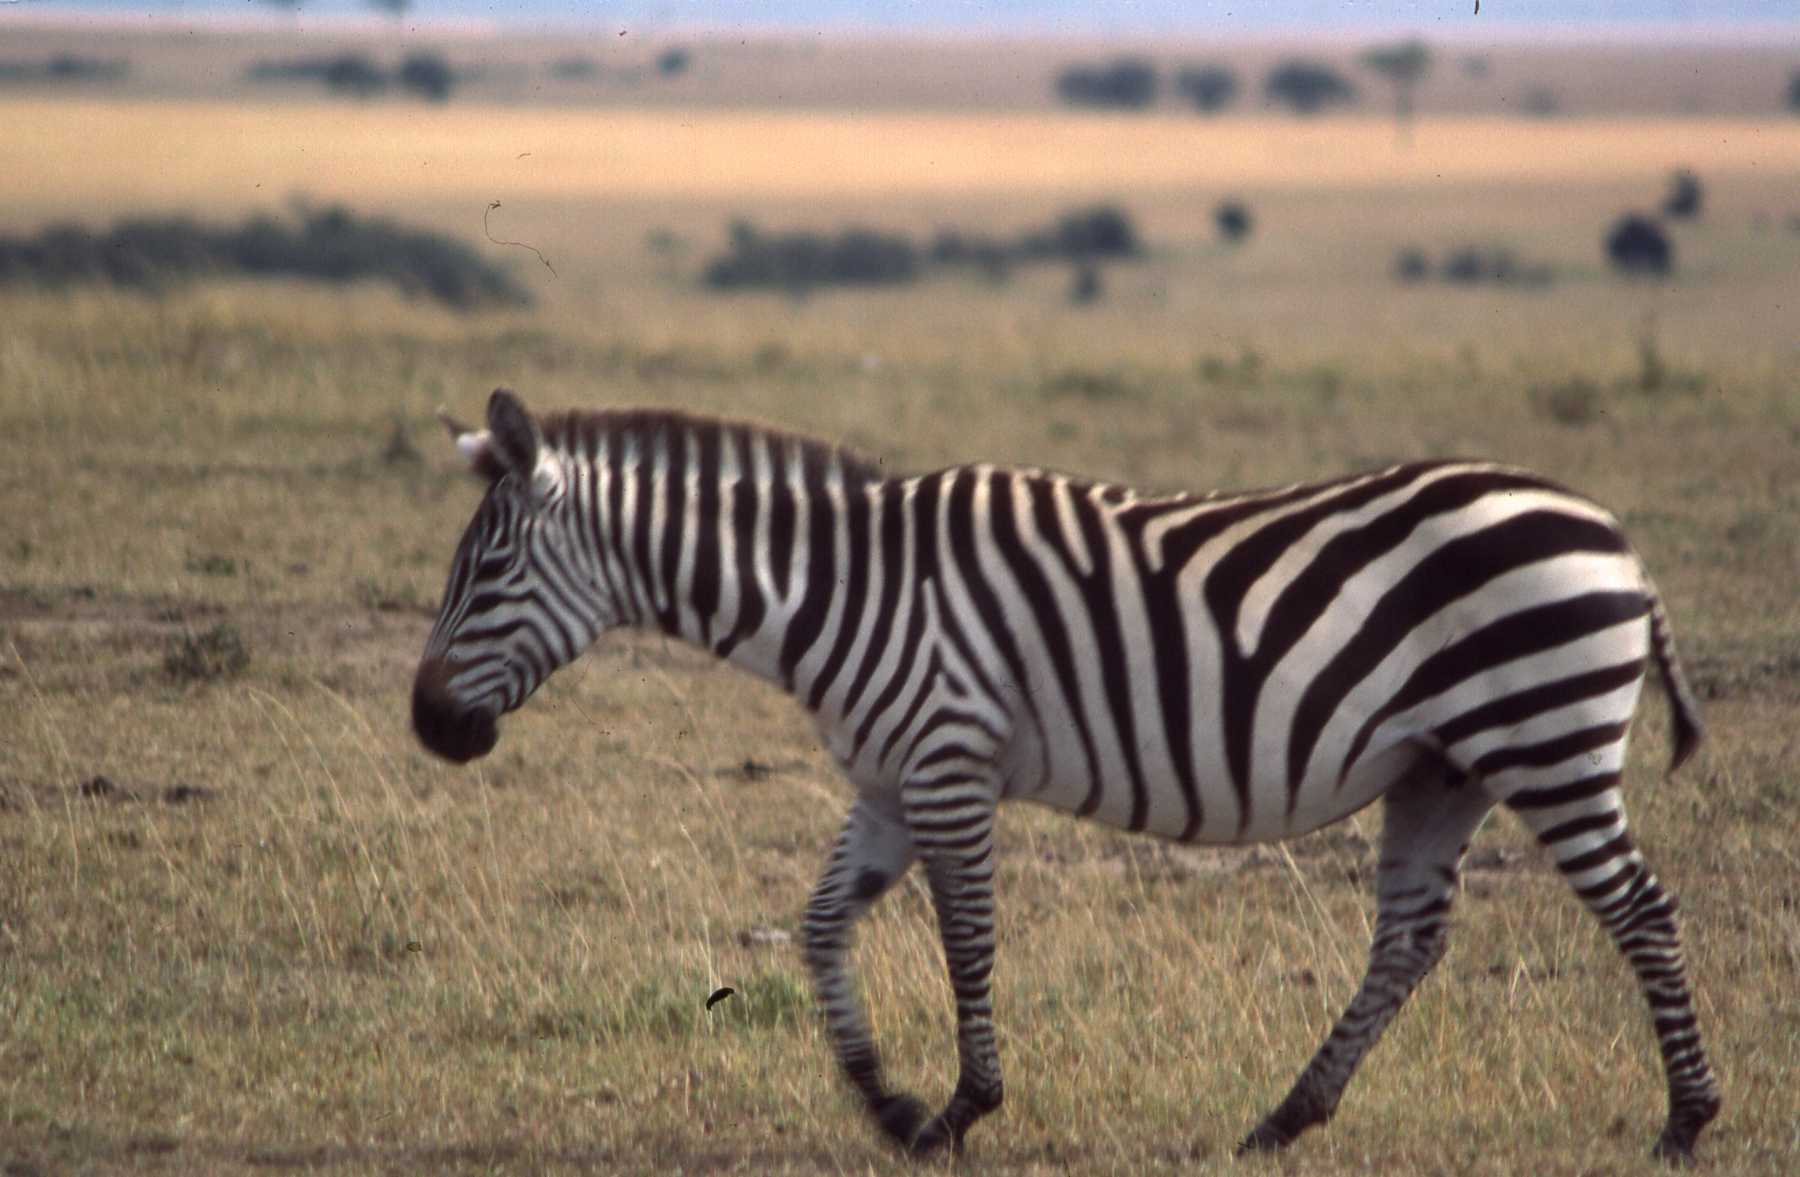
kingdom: Animalia
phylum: Chordata
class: Mammalia
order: Perissodactyla
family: Equidae
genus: Equus
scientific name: Equus quagga
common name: Plains zebra
